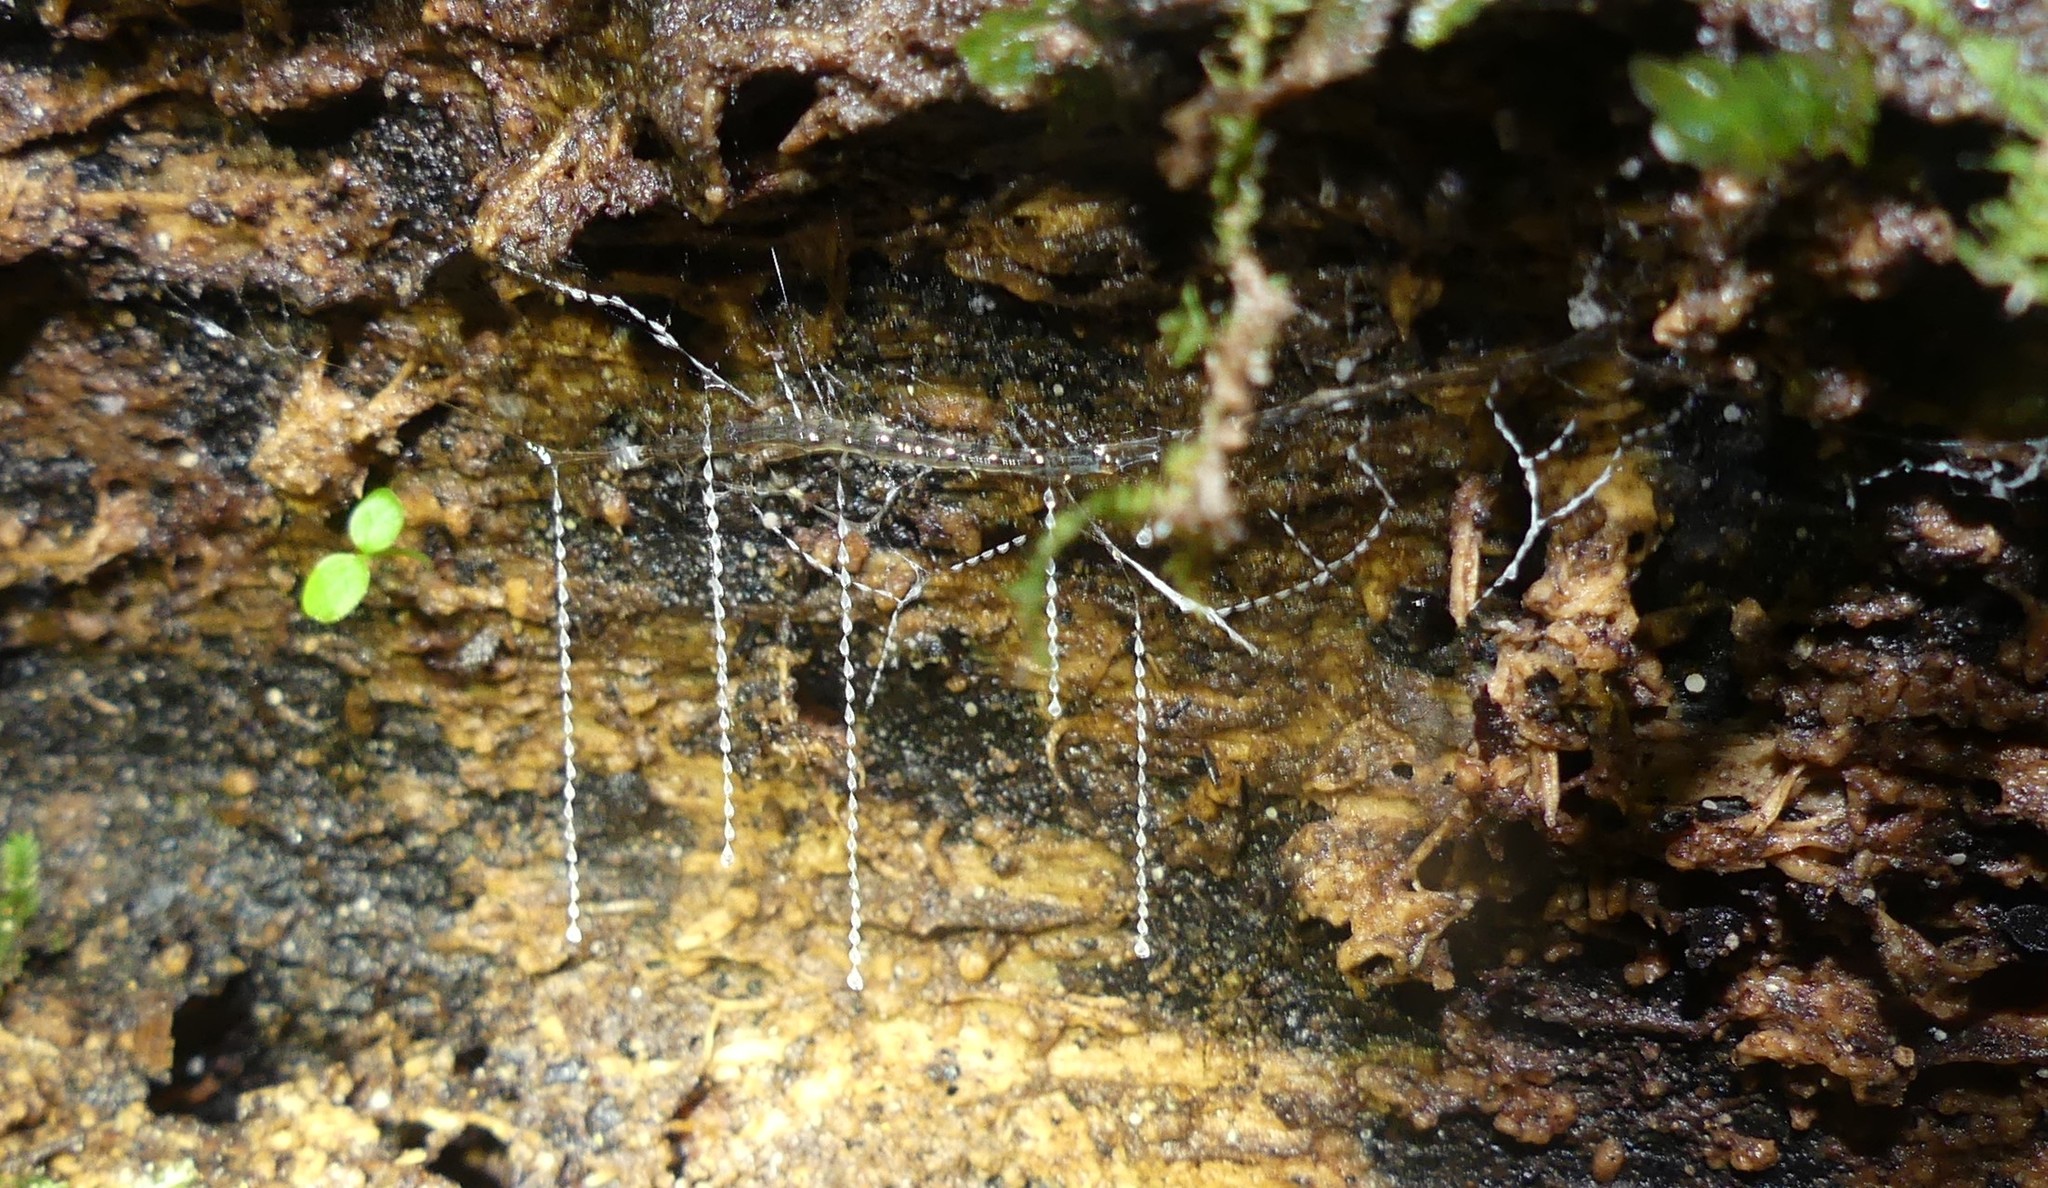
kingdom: Animalia
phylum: Arthropoda
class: Insecta
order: Diptera
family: Keroplatidae
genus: Arachnocampa
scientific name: Arachnocampa luminosa
